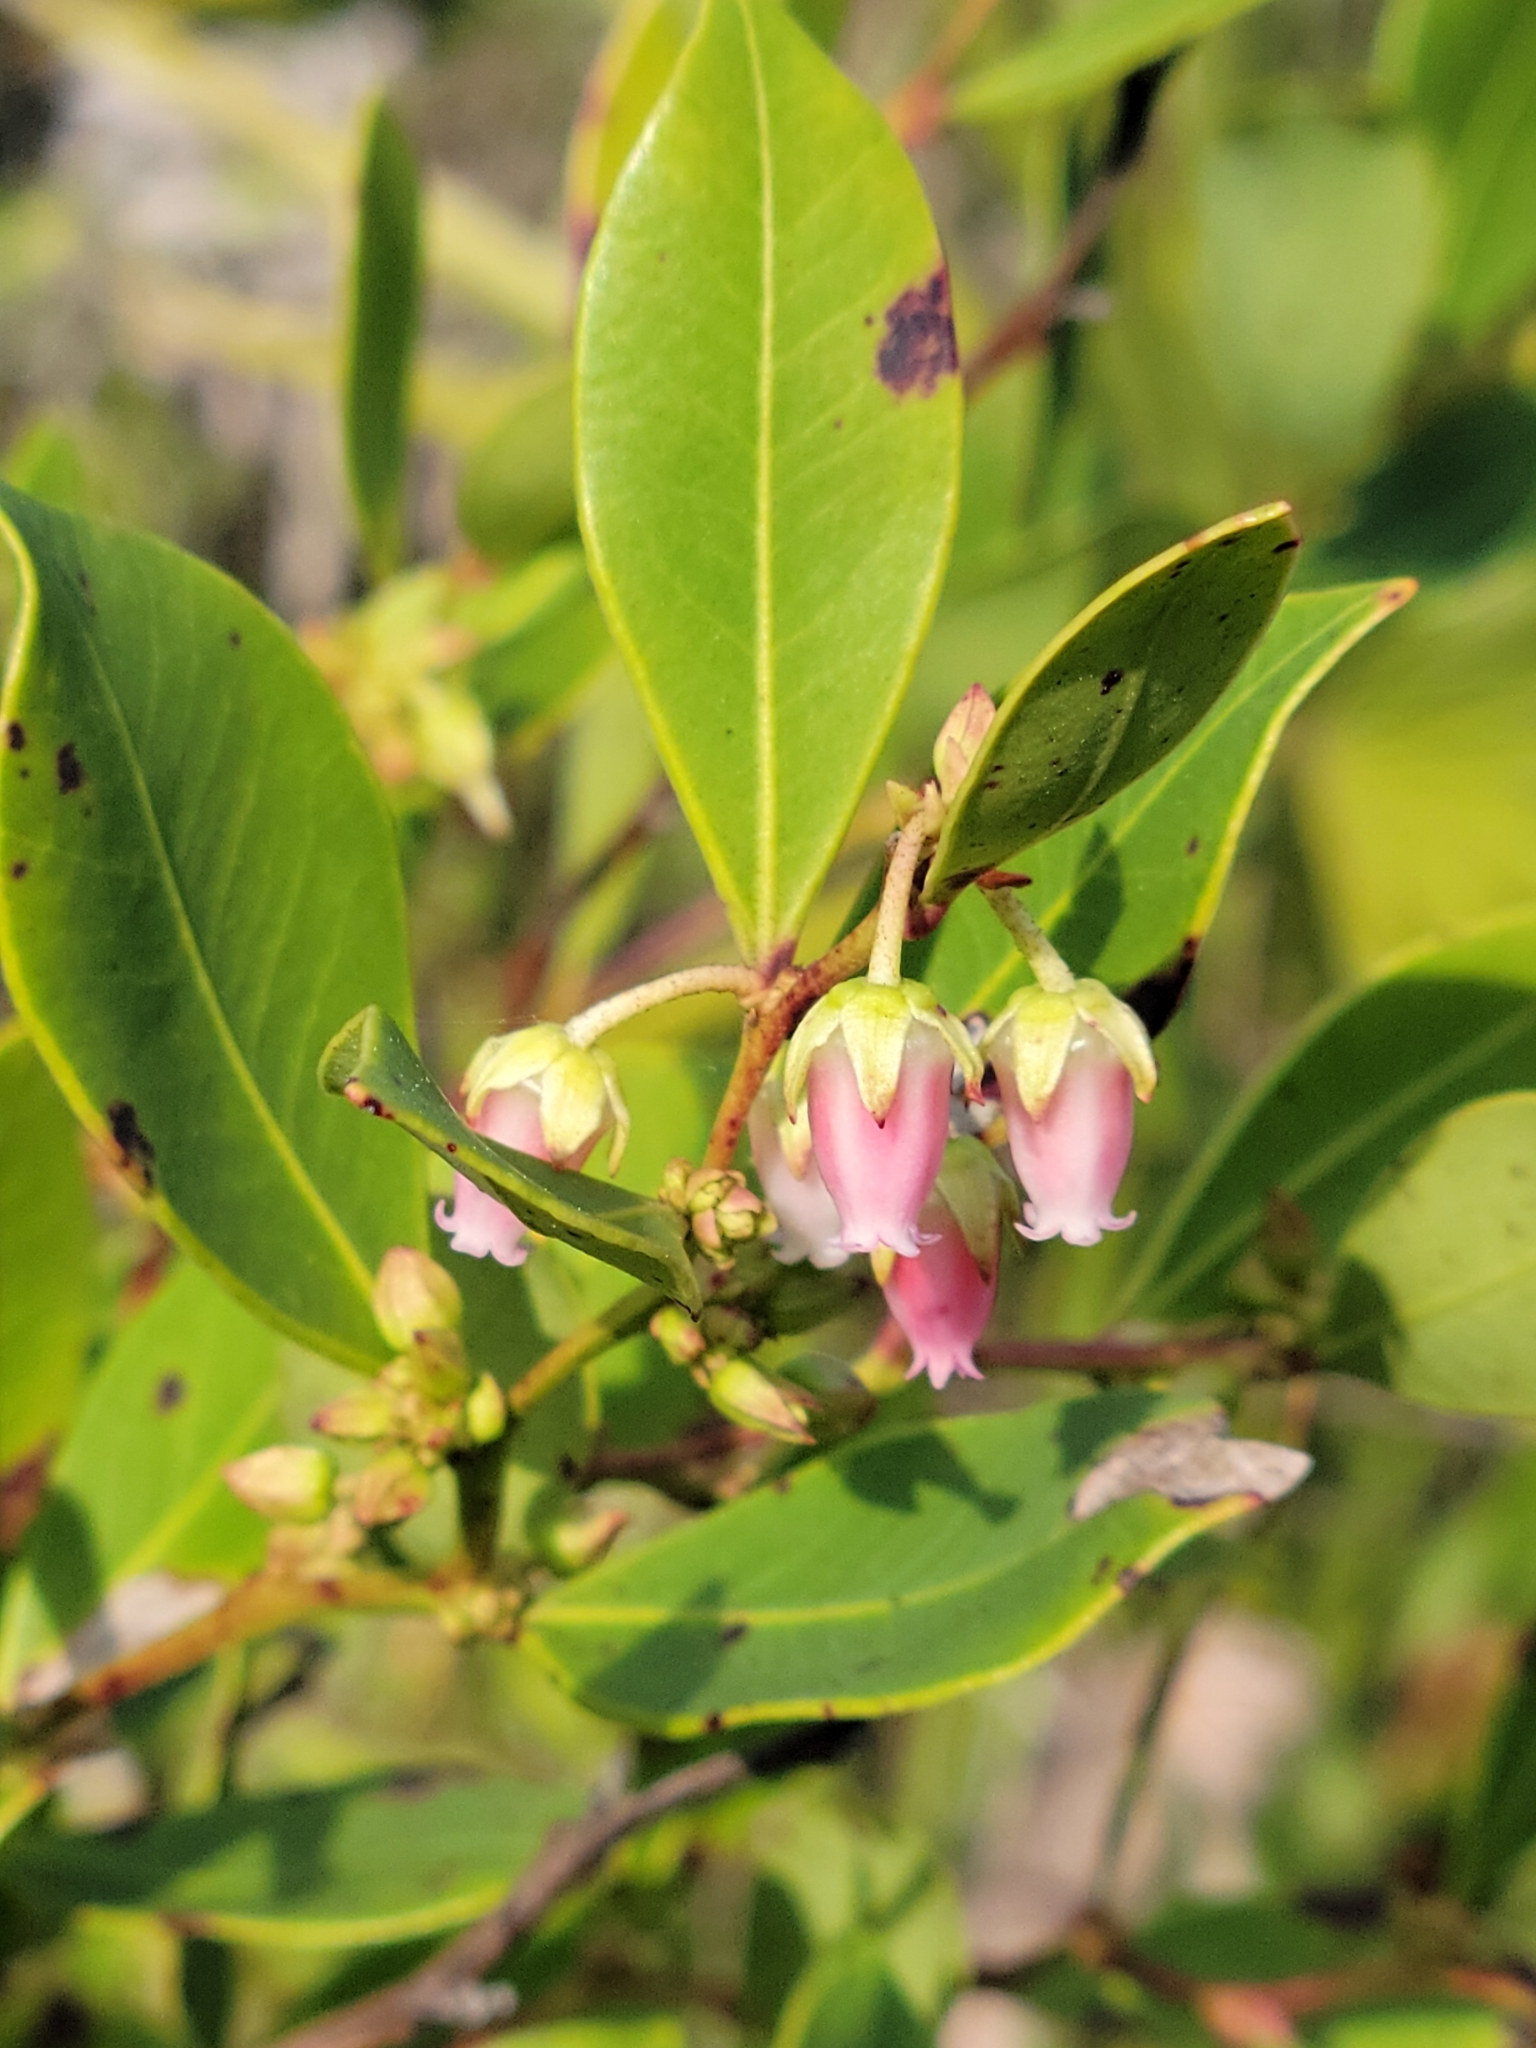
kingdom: Plantae
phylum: Tracheophyta
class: Magnoliopsida
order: Ericales
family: Ericaceae
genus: Lyonia
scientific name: Lyonia lucida
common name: Fetterbush
